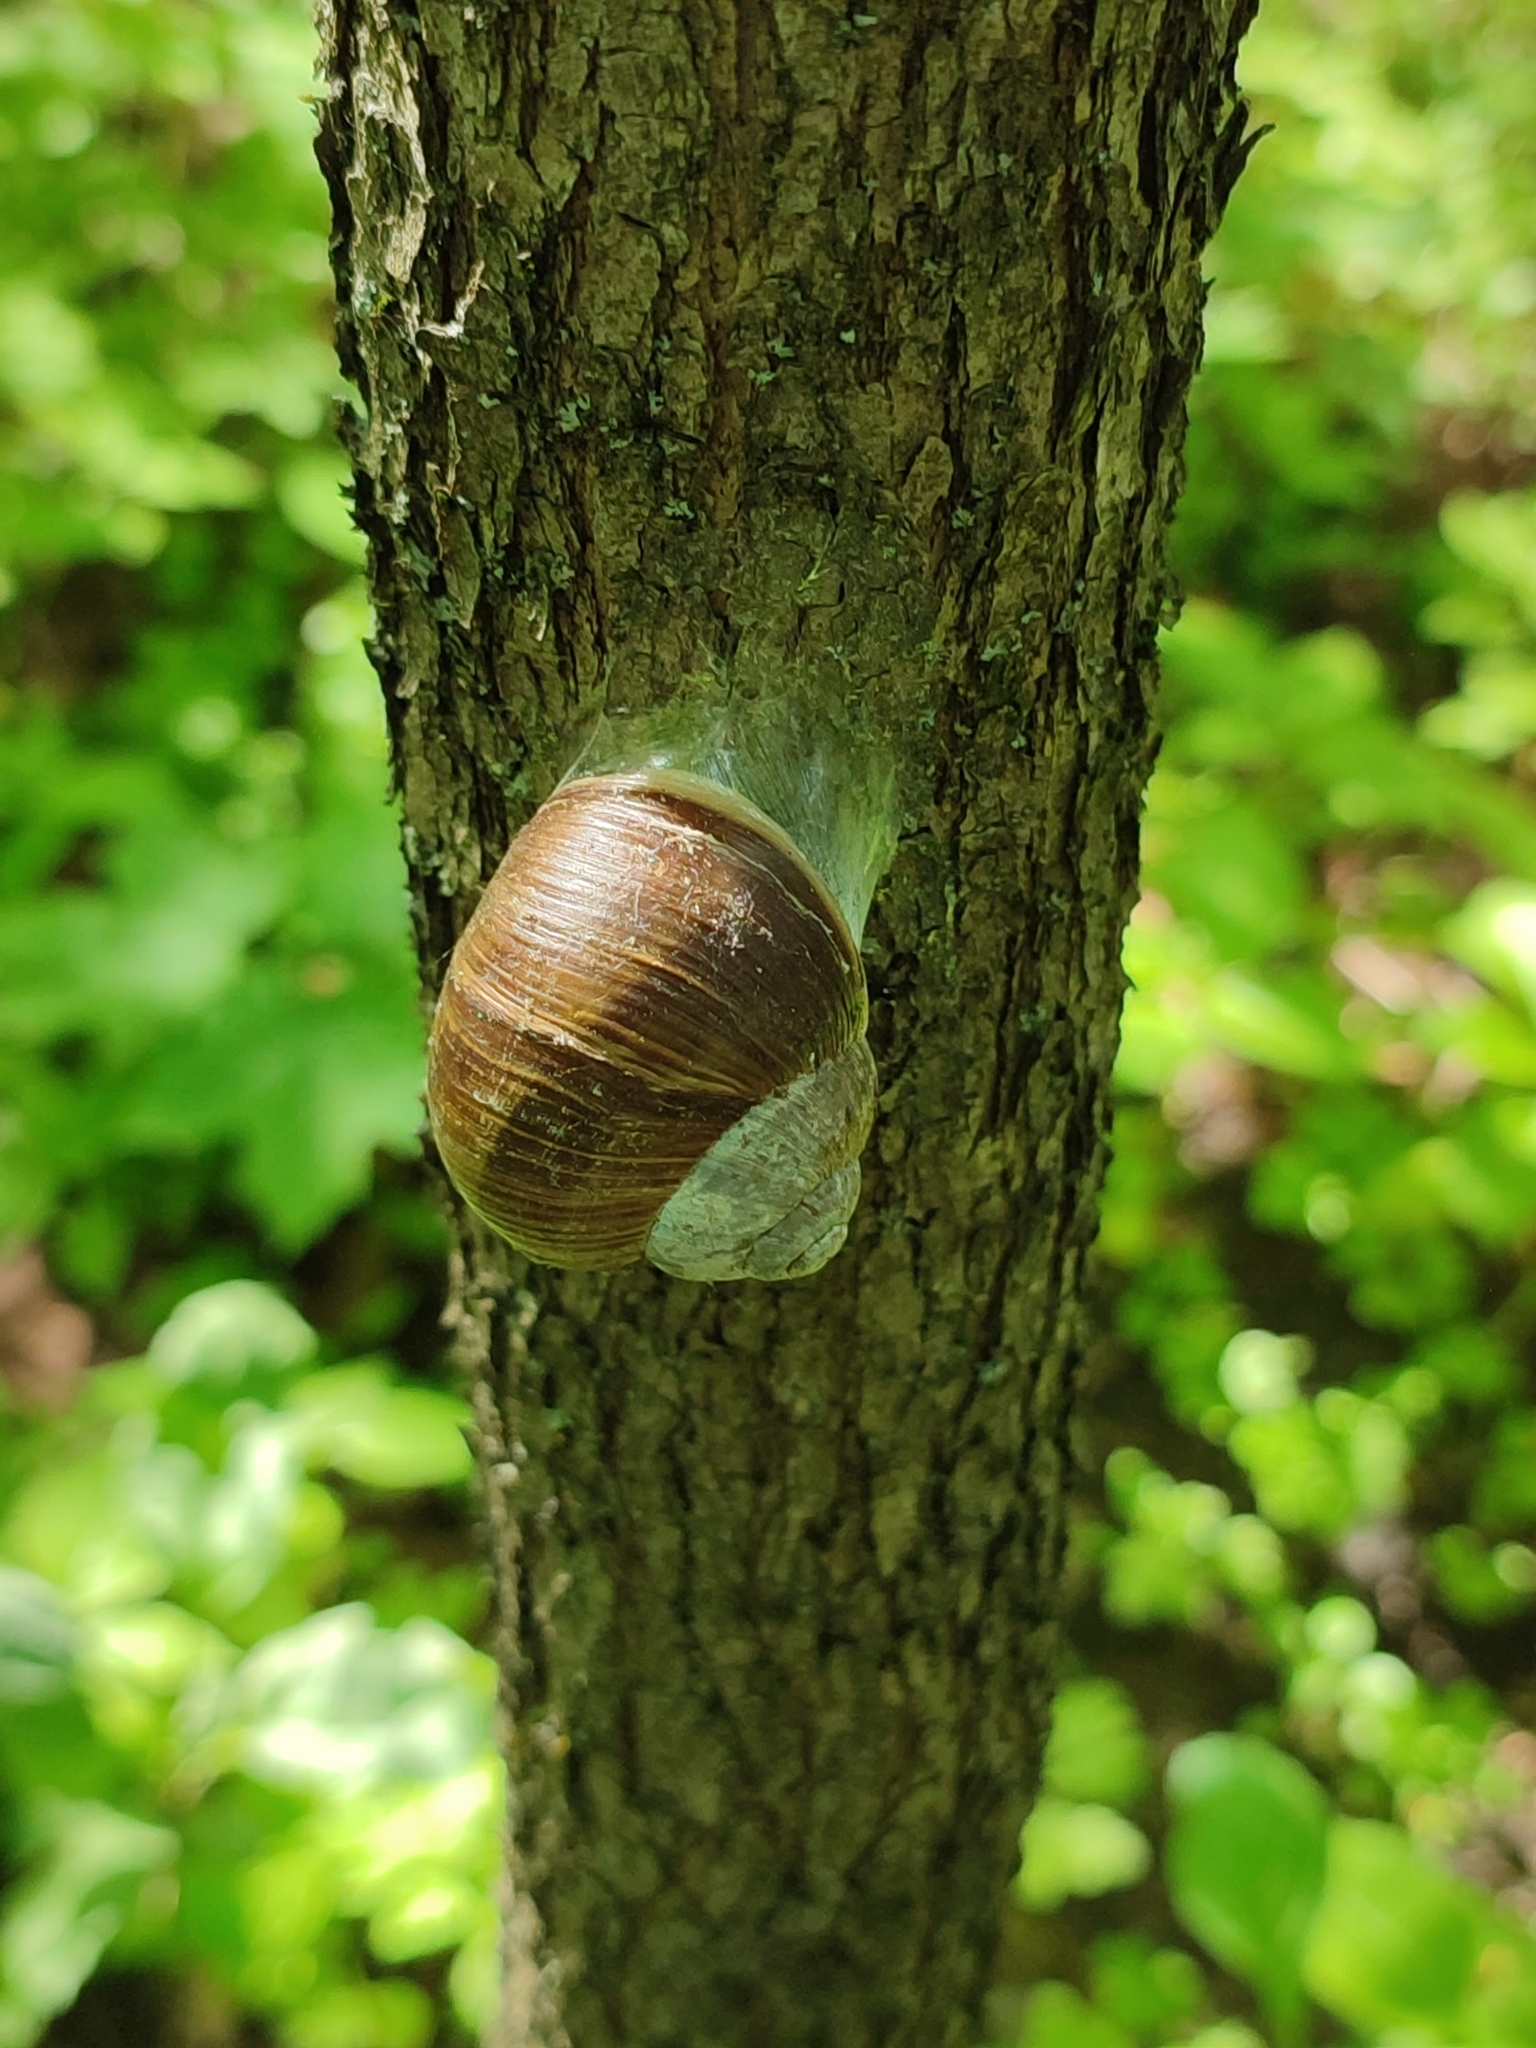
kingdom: Animalia
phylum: Mollusca
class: Gastropoda
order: Stylommatophora
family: Helicidae
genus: Helix
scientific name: Helix pomatia
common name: Roman snail
